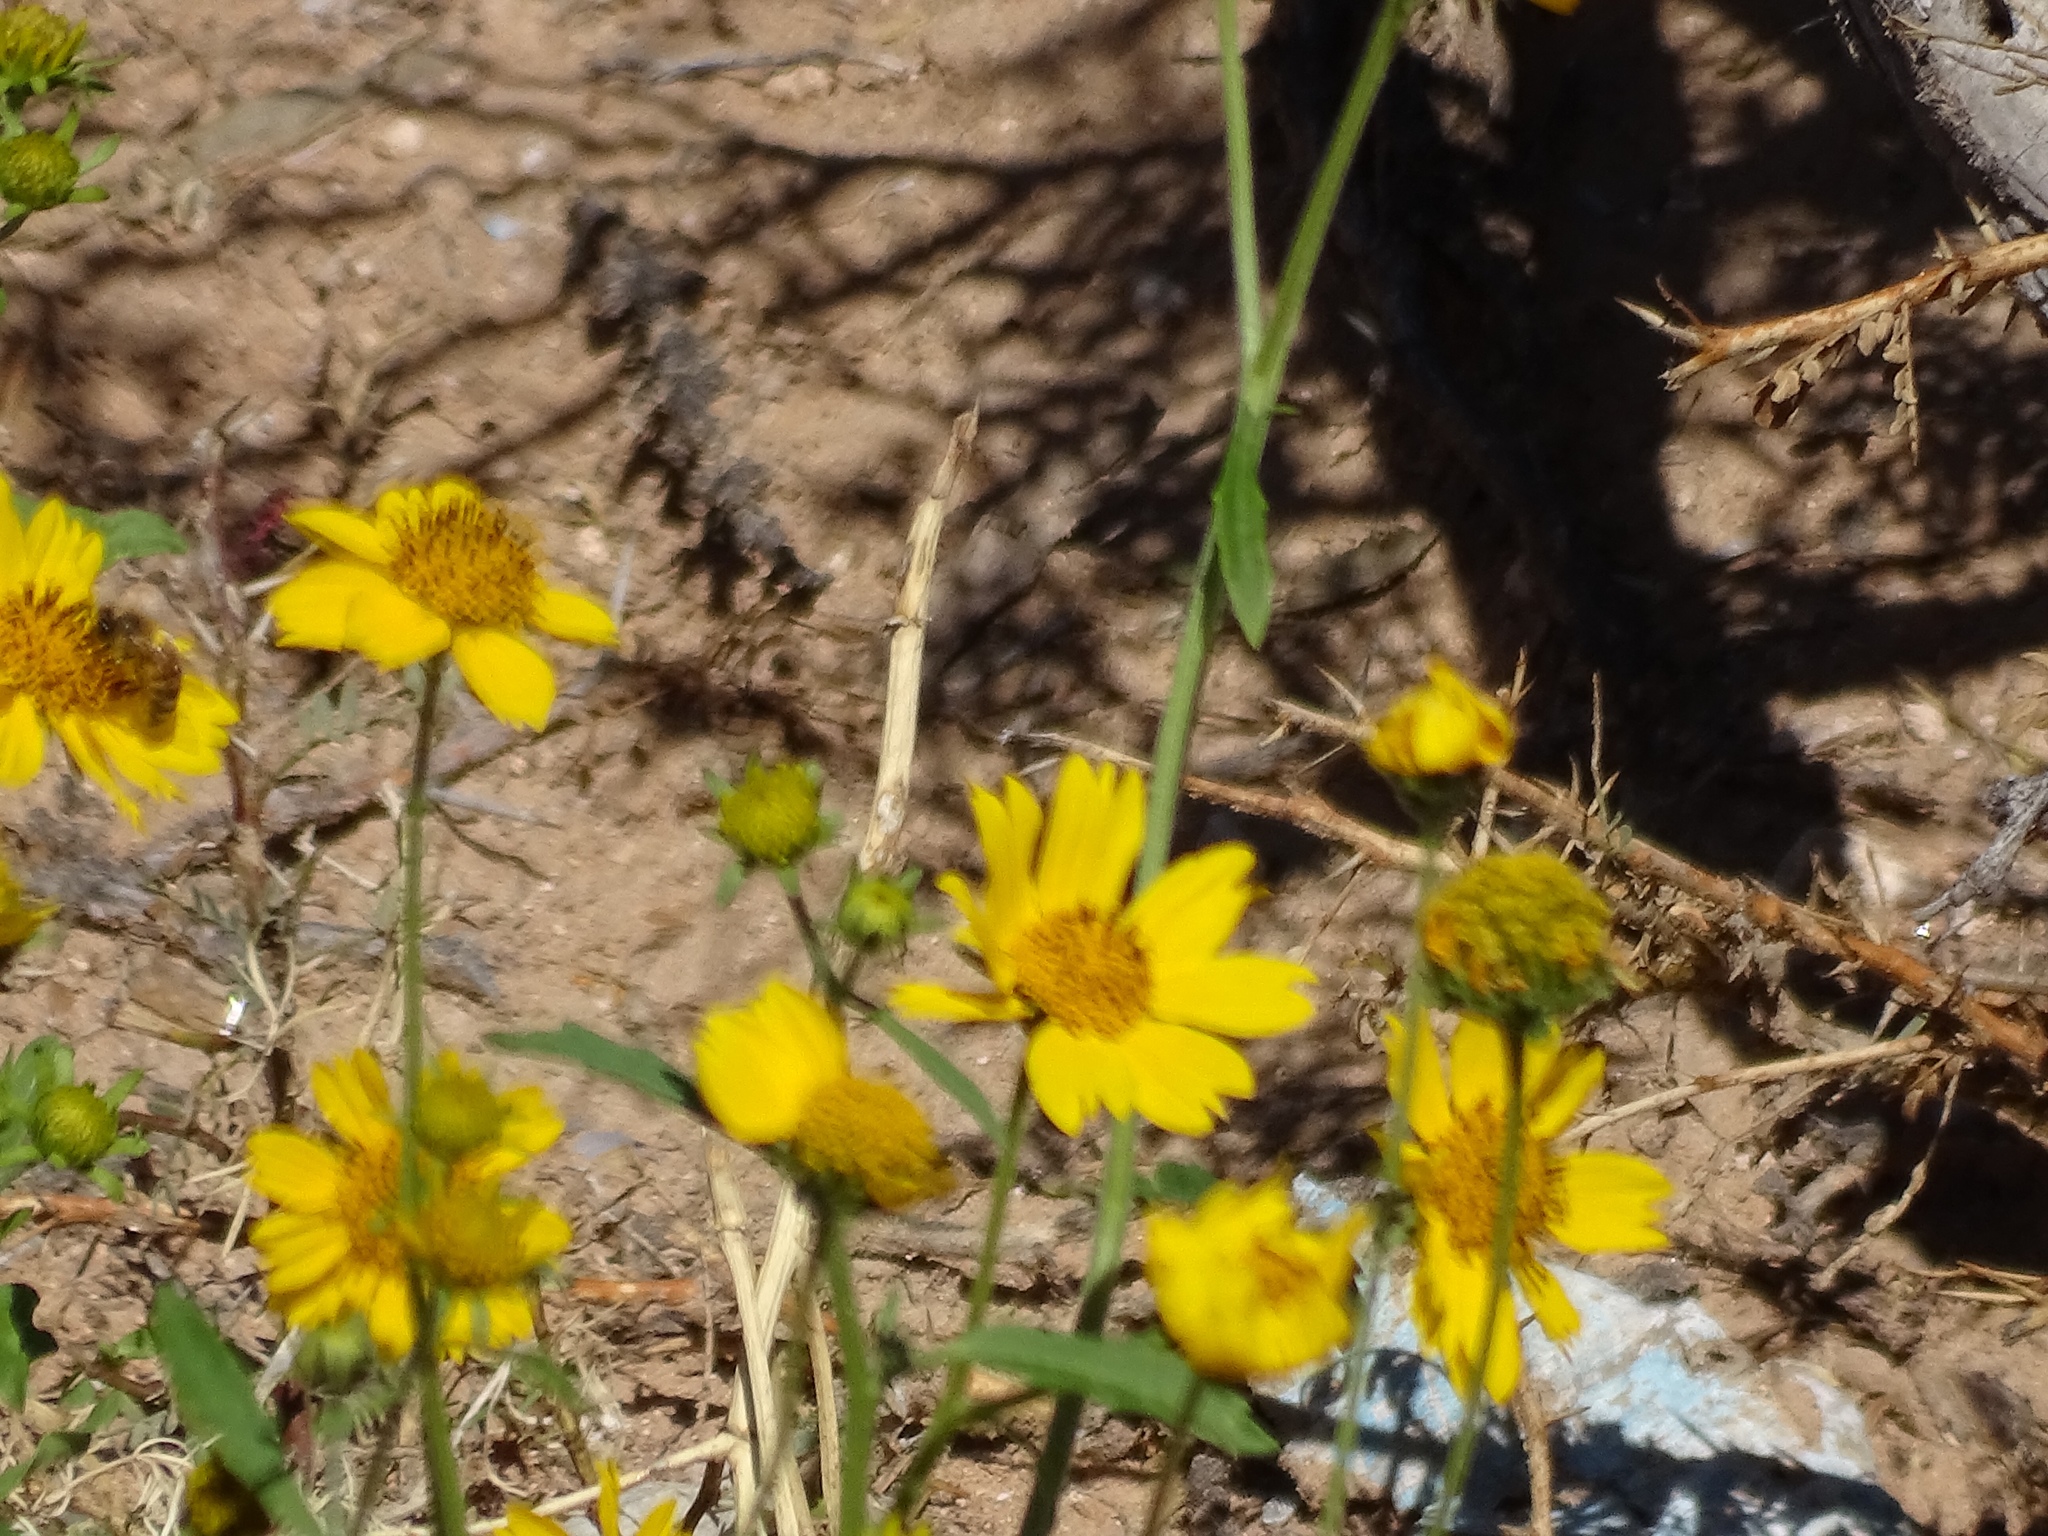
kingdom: Plantae
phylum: Tracheophyta
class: Magnoliopsida
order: Asterales
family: Asteraceae
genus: Verbesina
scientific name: Verbesina encelioides
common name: Golden crownbeard
